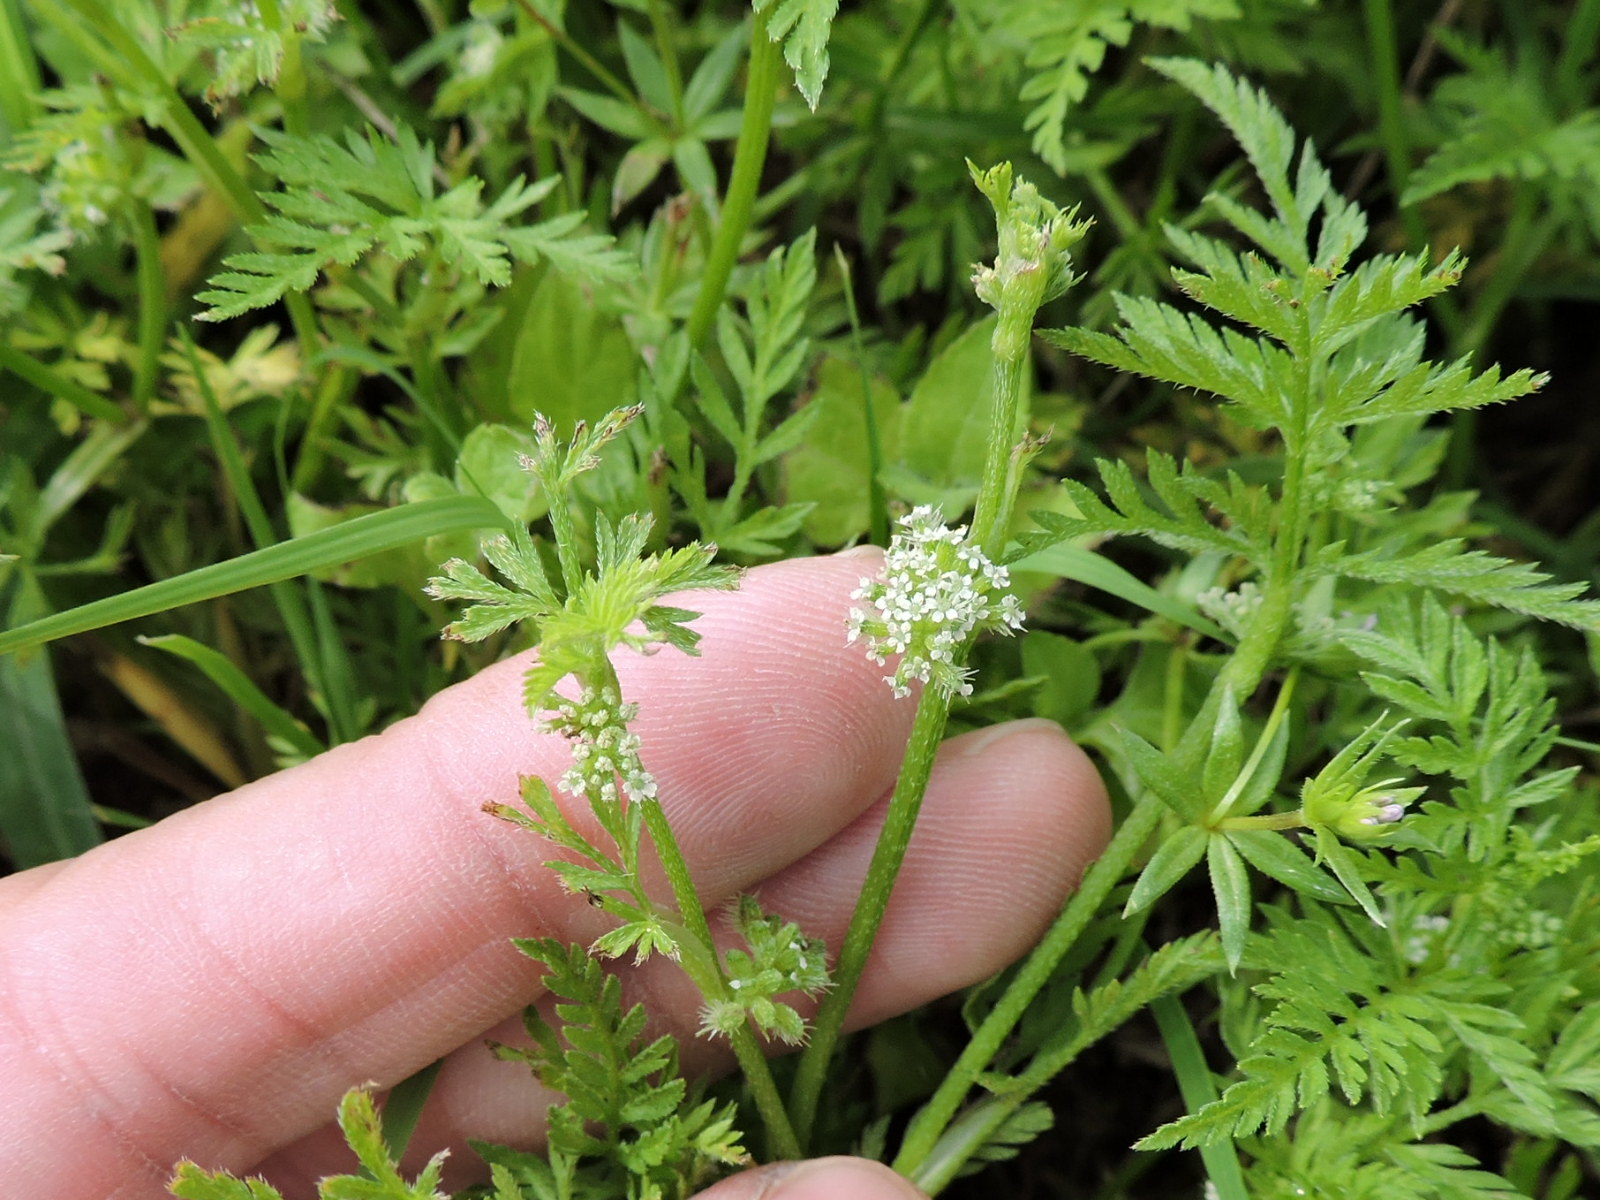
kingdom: Plantae
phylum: Tracheophyta
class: Magnoliopsida
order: Apiales
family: Apiaceae
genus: Torilis
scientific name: Torilis nodosa
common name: Knotted hedge-parsley
